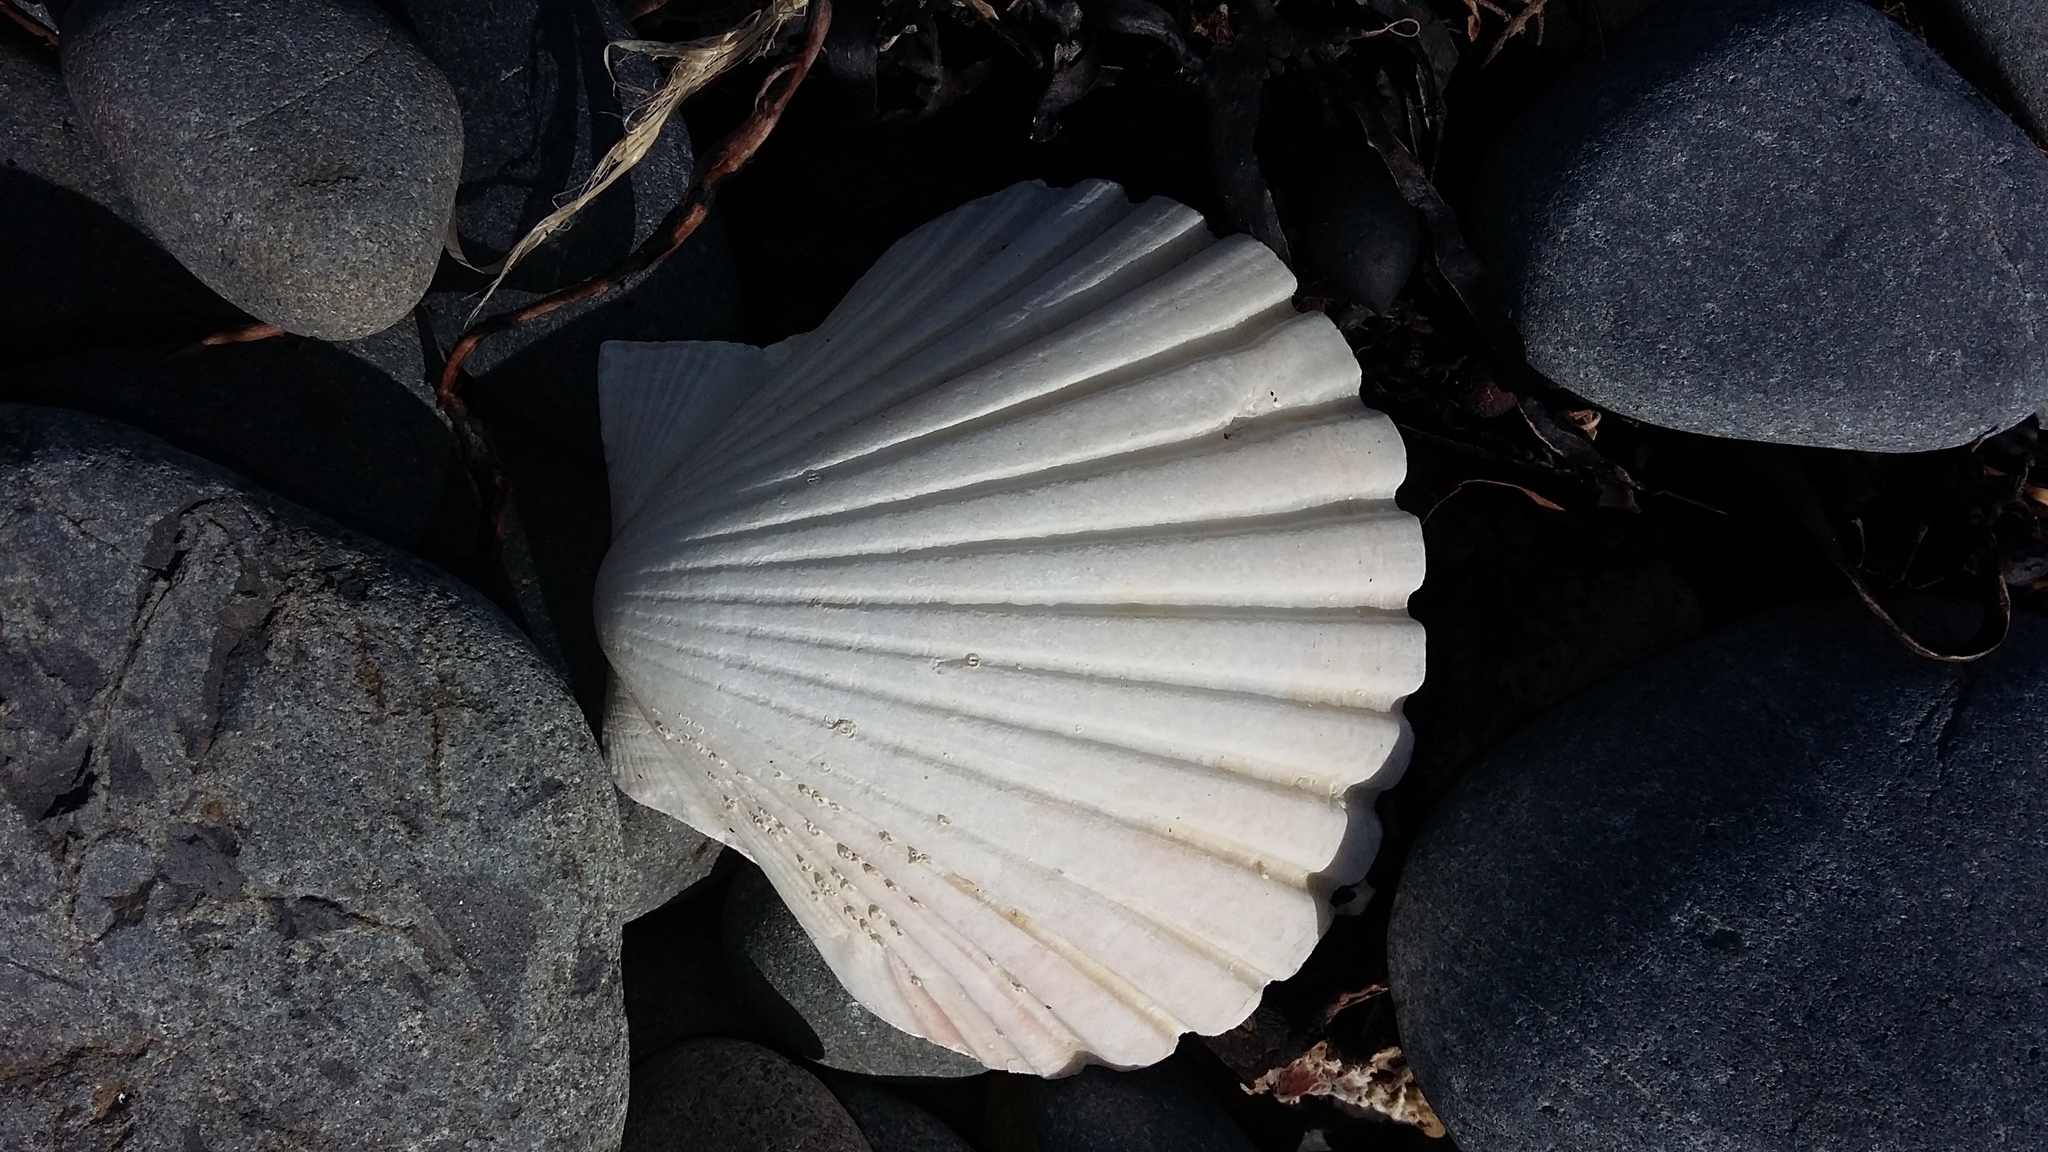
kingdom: Animalia
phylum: Mollusca
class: Bivalvia
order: Pectinida
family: Pectinidae
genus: Pecten
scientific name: Pecten novaezelandiae
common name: New zealand scallop
